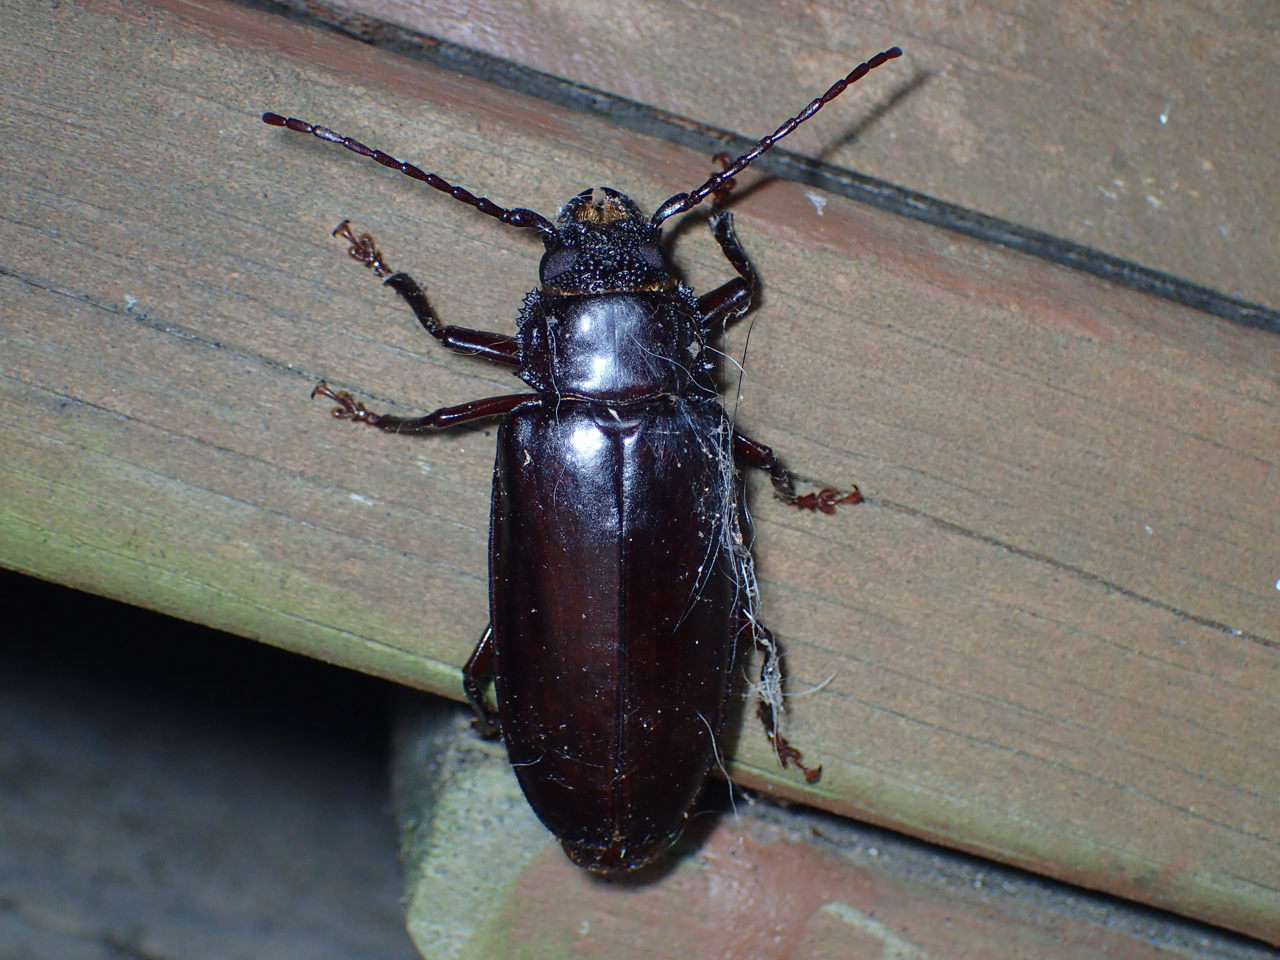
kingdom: Animalia
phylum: Arthropoda
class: Insecta
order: Coleoptera
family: Cerambycidae
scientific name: Cerambycidae
